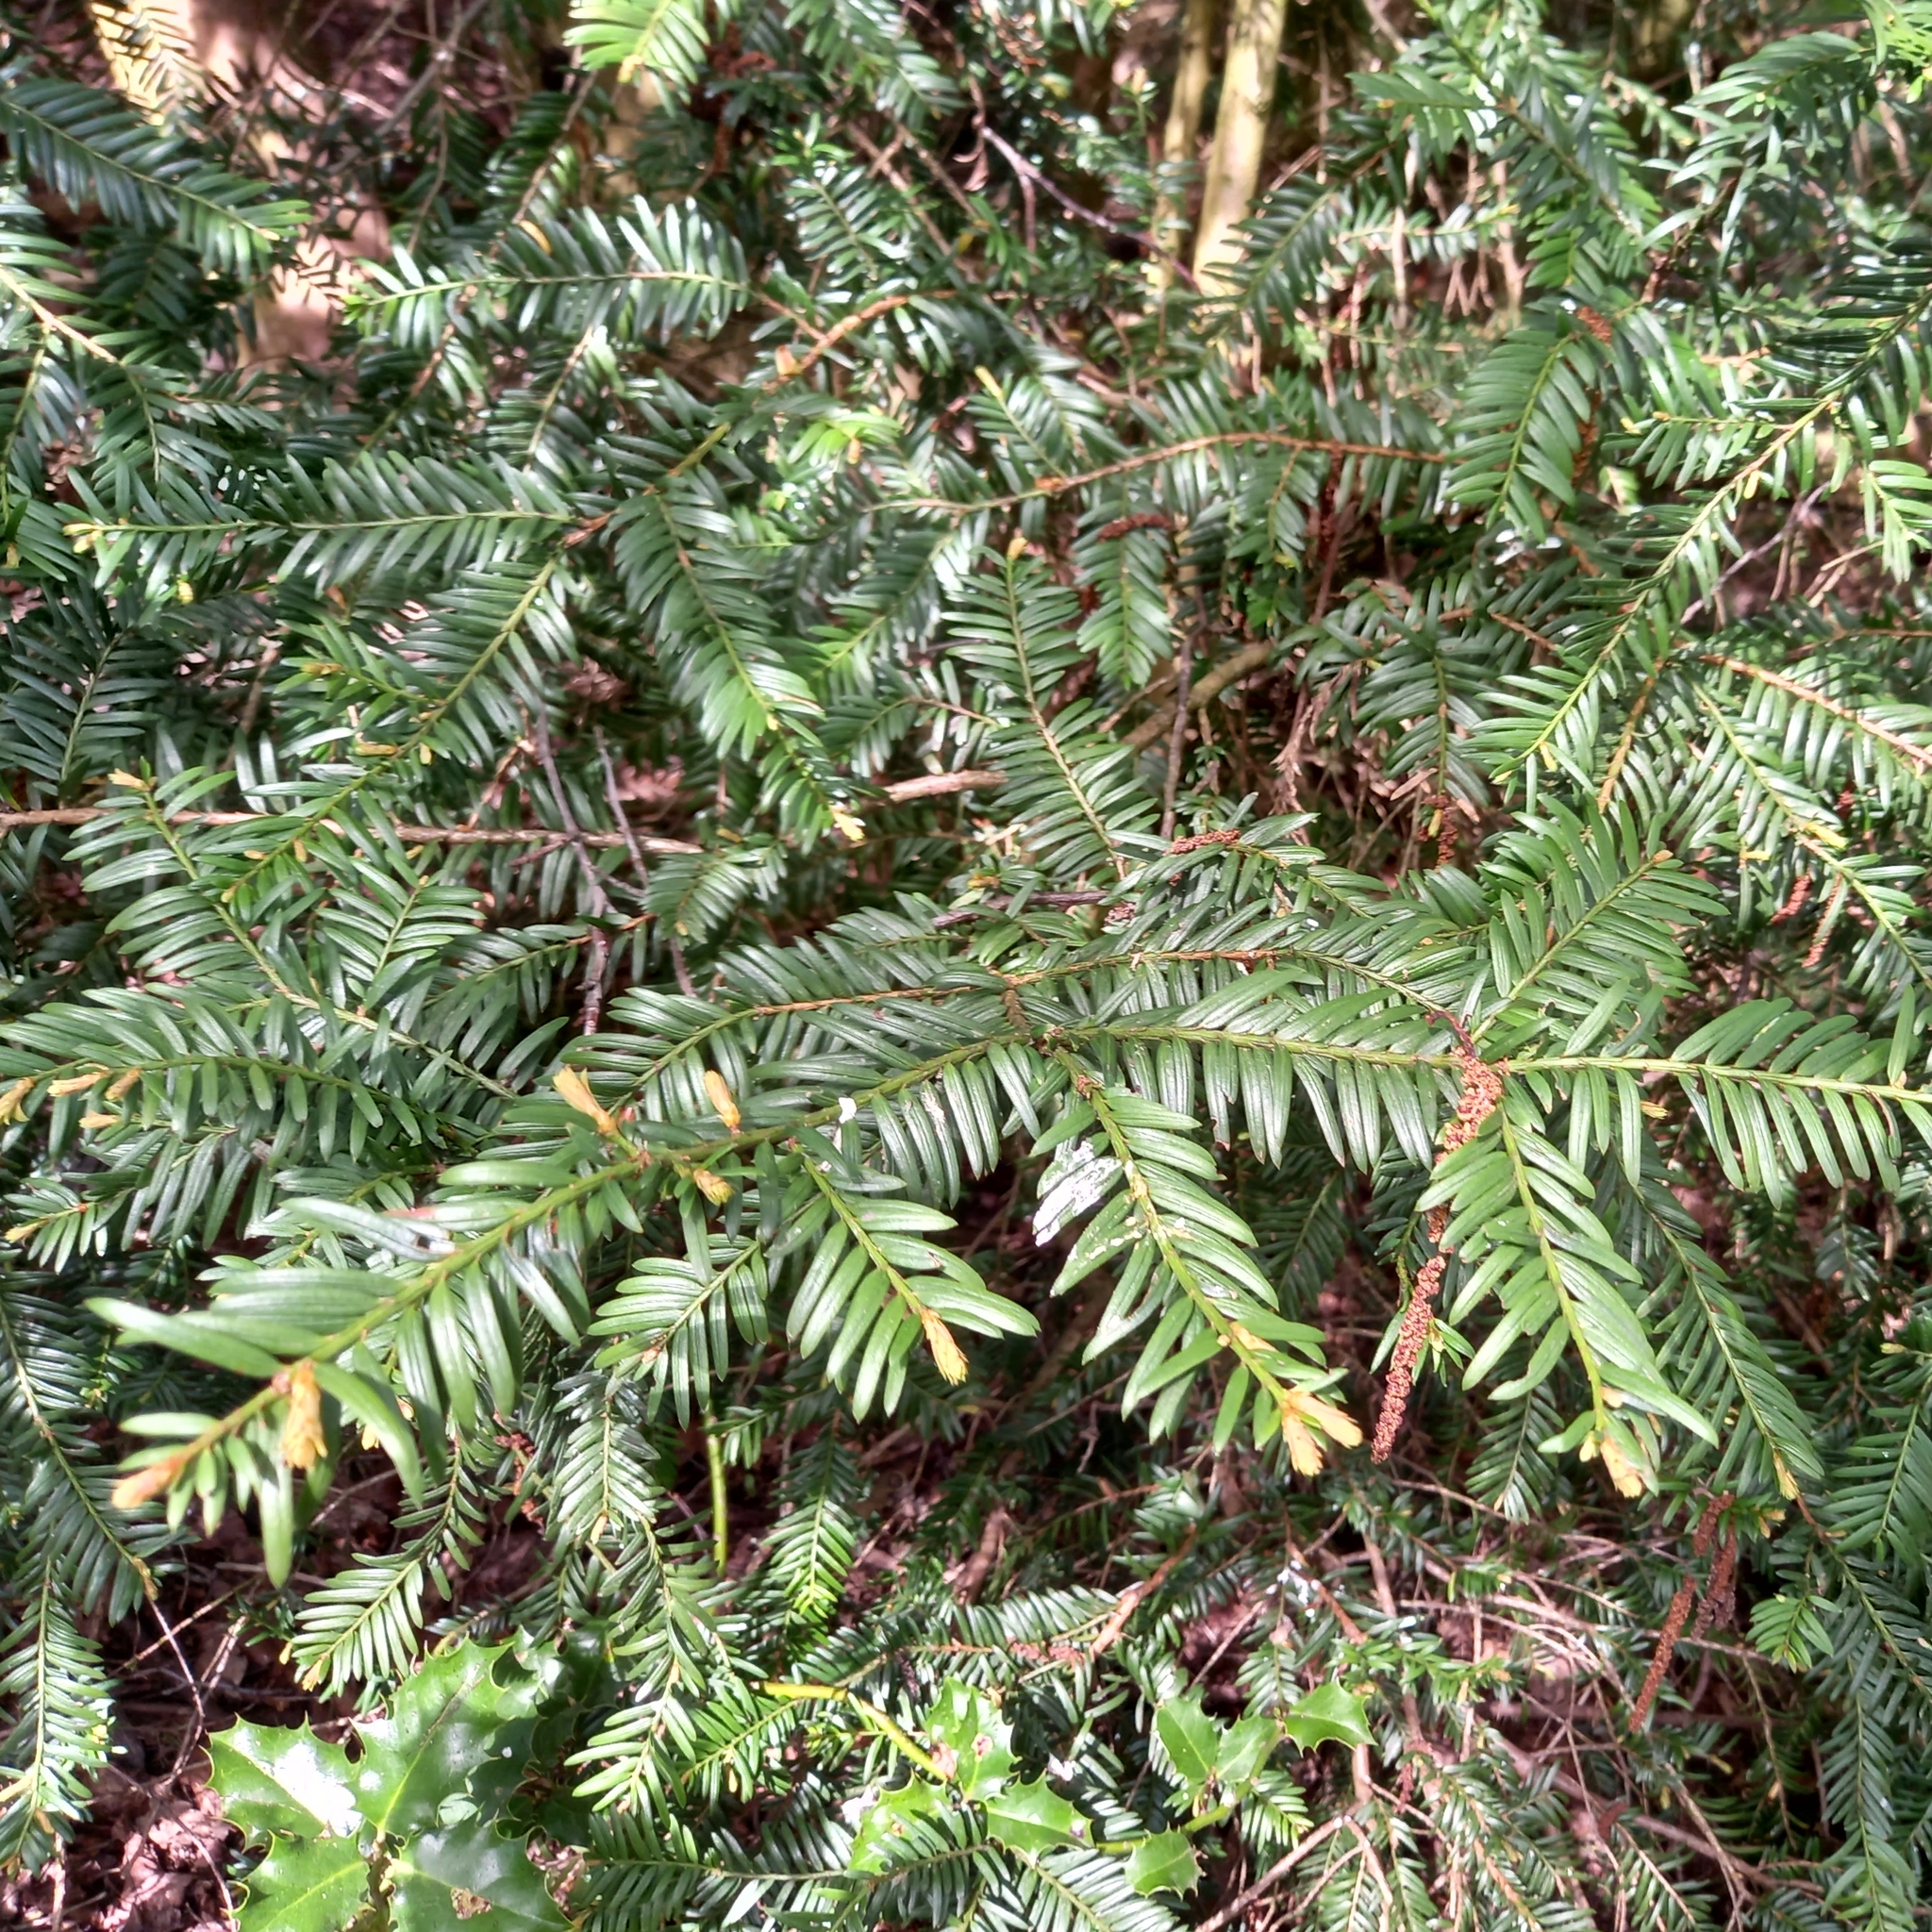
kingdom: Plantae
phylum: Tracheophyta
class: Pinopsida
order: Pinales
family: Taxaceae
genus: Taxus
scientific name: Taxus baccata
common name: Yew
